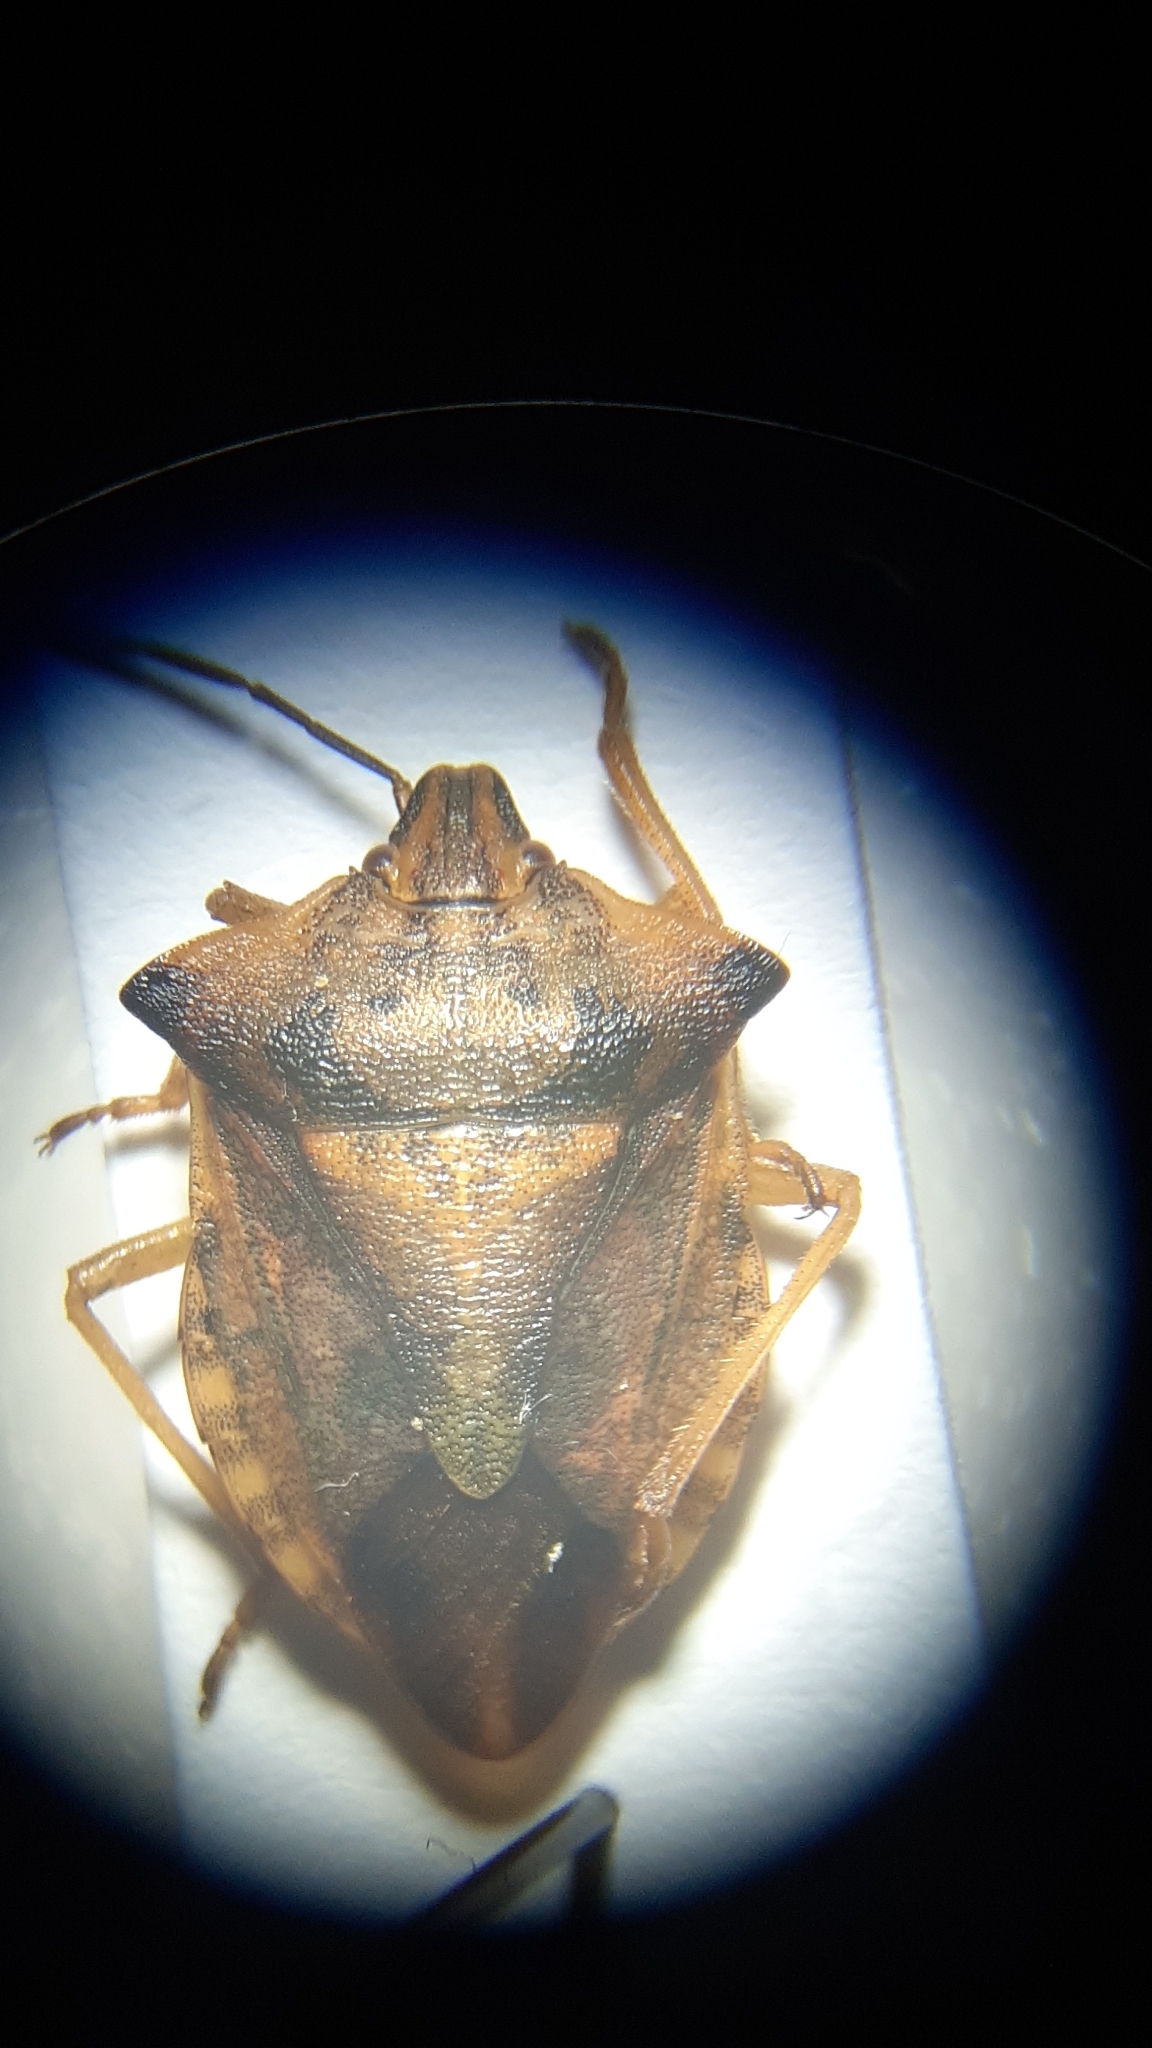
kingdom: Animalia
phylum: Arthropoda
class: Insecta
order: Hemiptera
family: Pentatomidae
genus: Carpocoris
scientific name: Carpocoris fuscispinus
